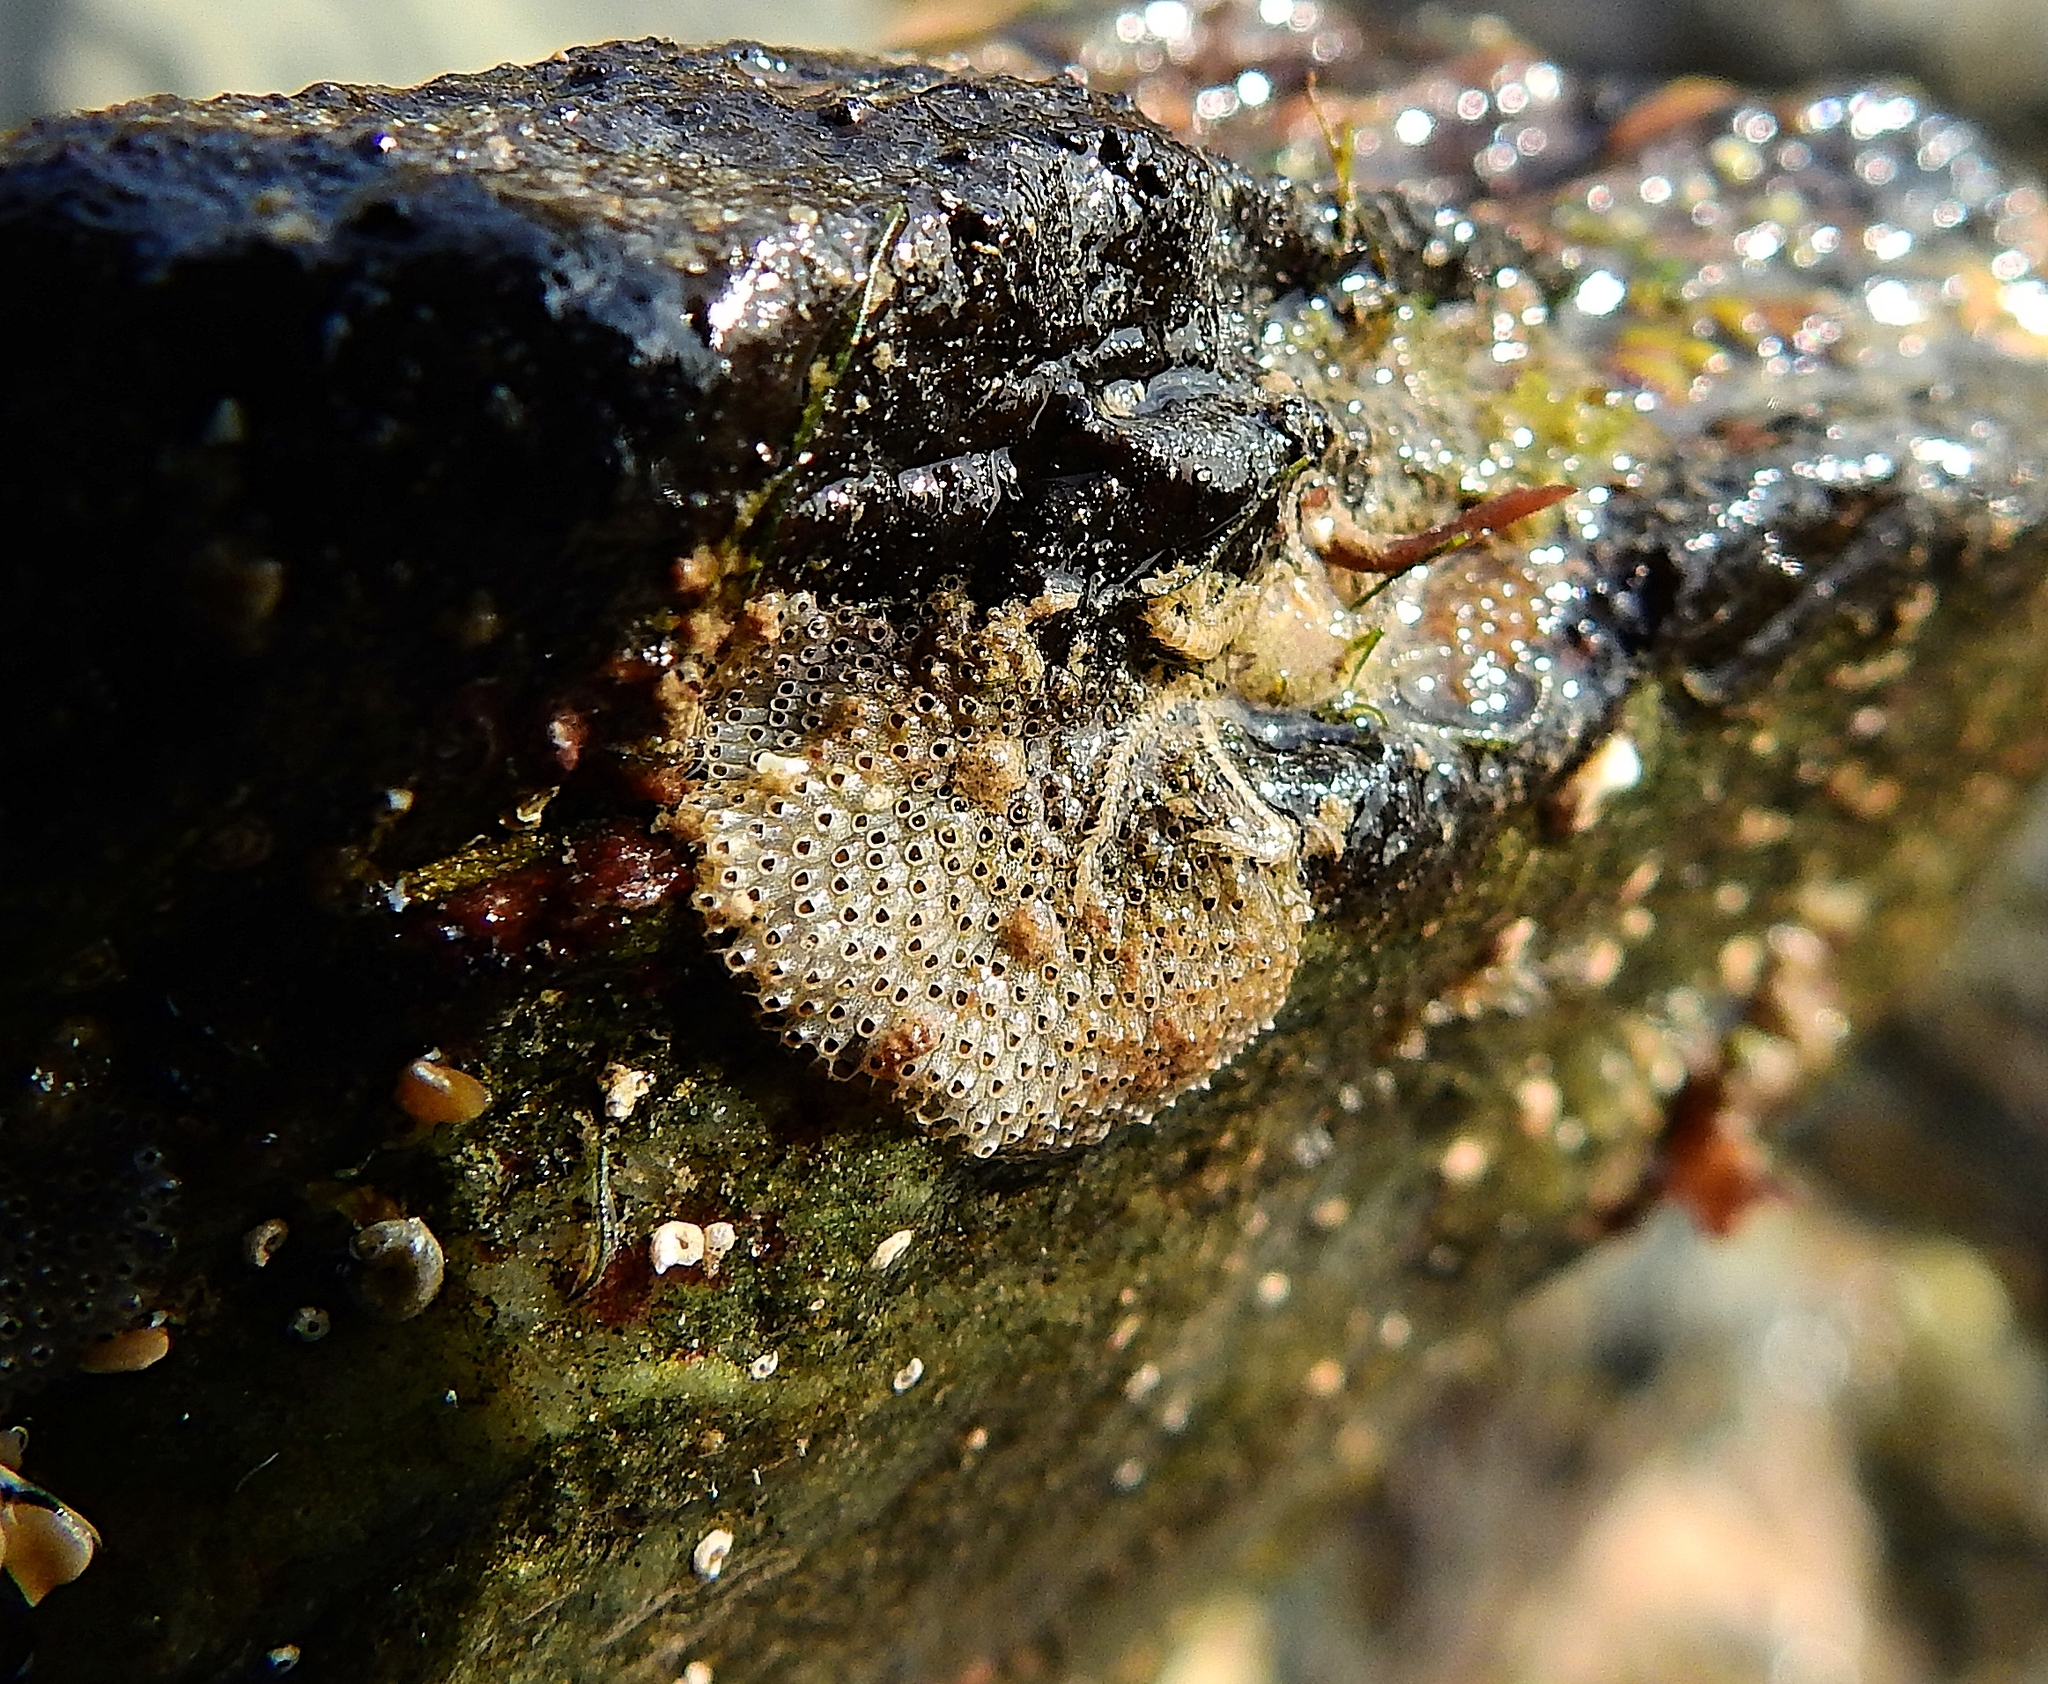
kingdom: Animalia
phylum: Bryozoa
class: Gymnolaemata
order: Cheilostomatida
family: Schizoporellidae
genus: Schizoporella
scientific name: Schizoporella unicornis
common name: Single horn bryozoan
